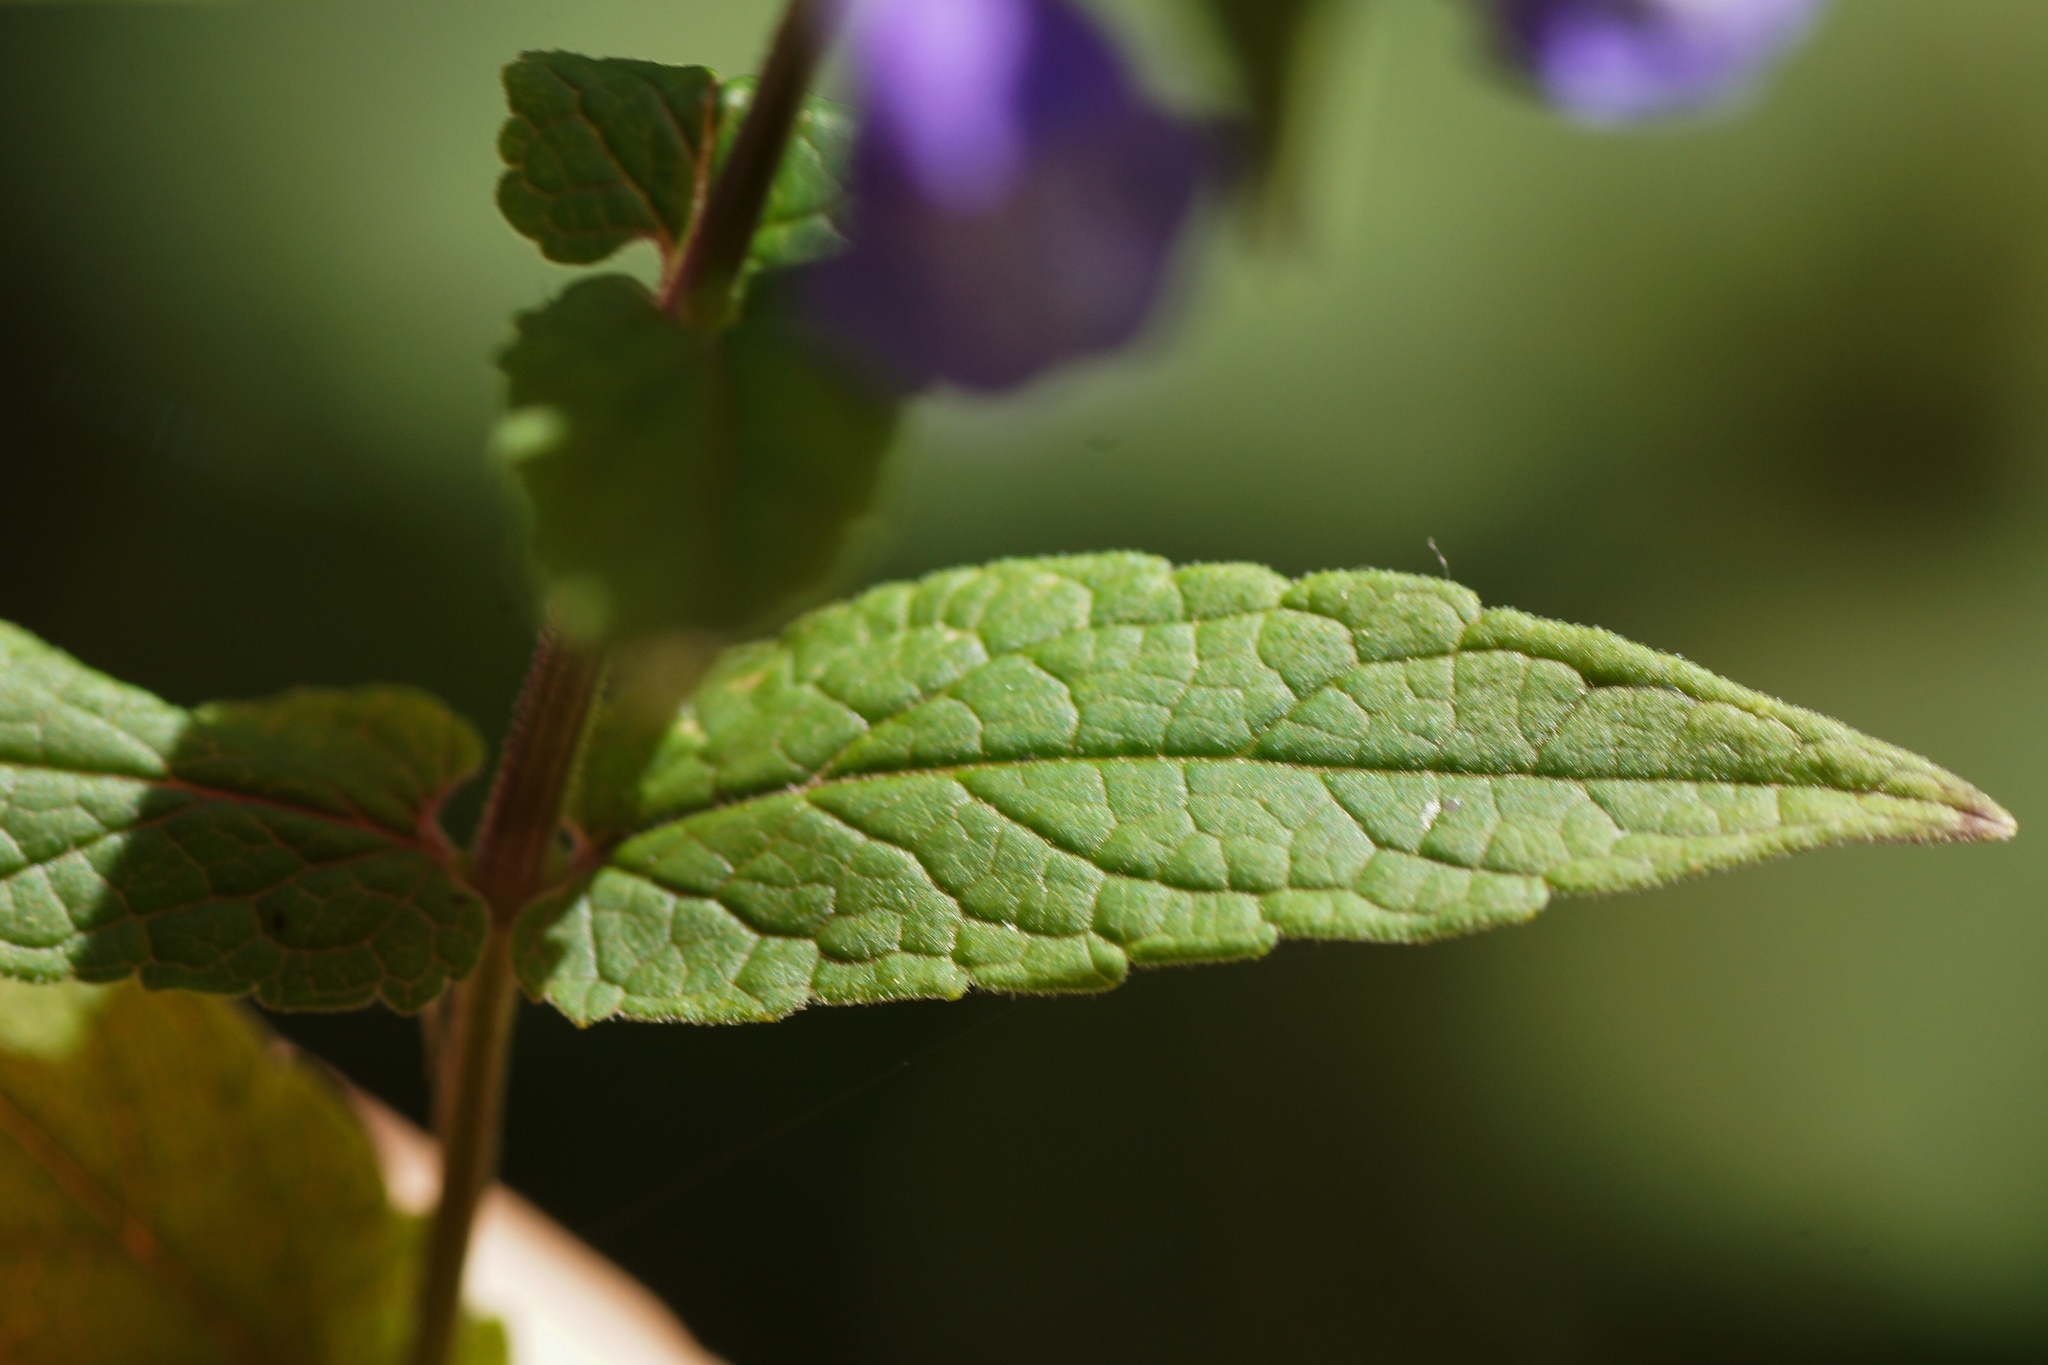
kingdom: Plantae
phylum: Tracheophyta
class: Magnoliopsida
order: Lamiales
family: Lamiaceae
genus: Scutellaria
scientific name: Scutellaria galericulata
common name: Skullcap
